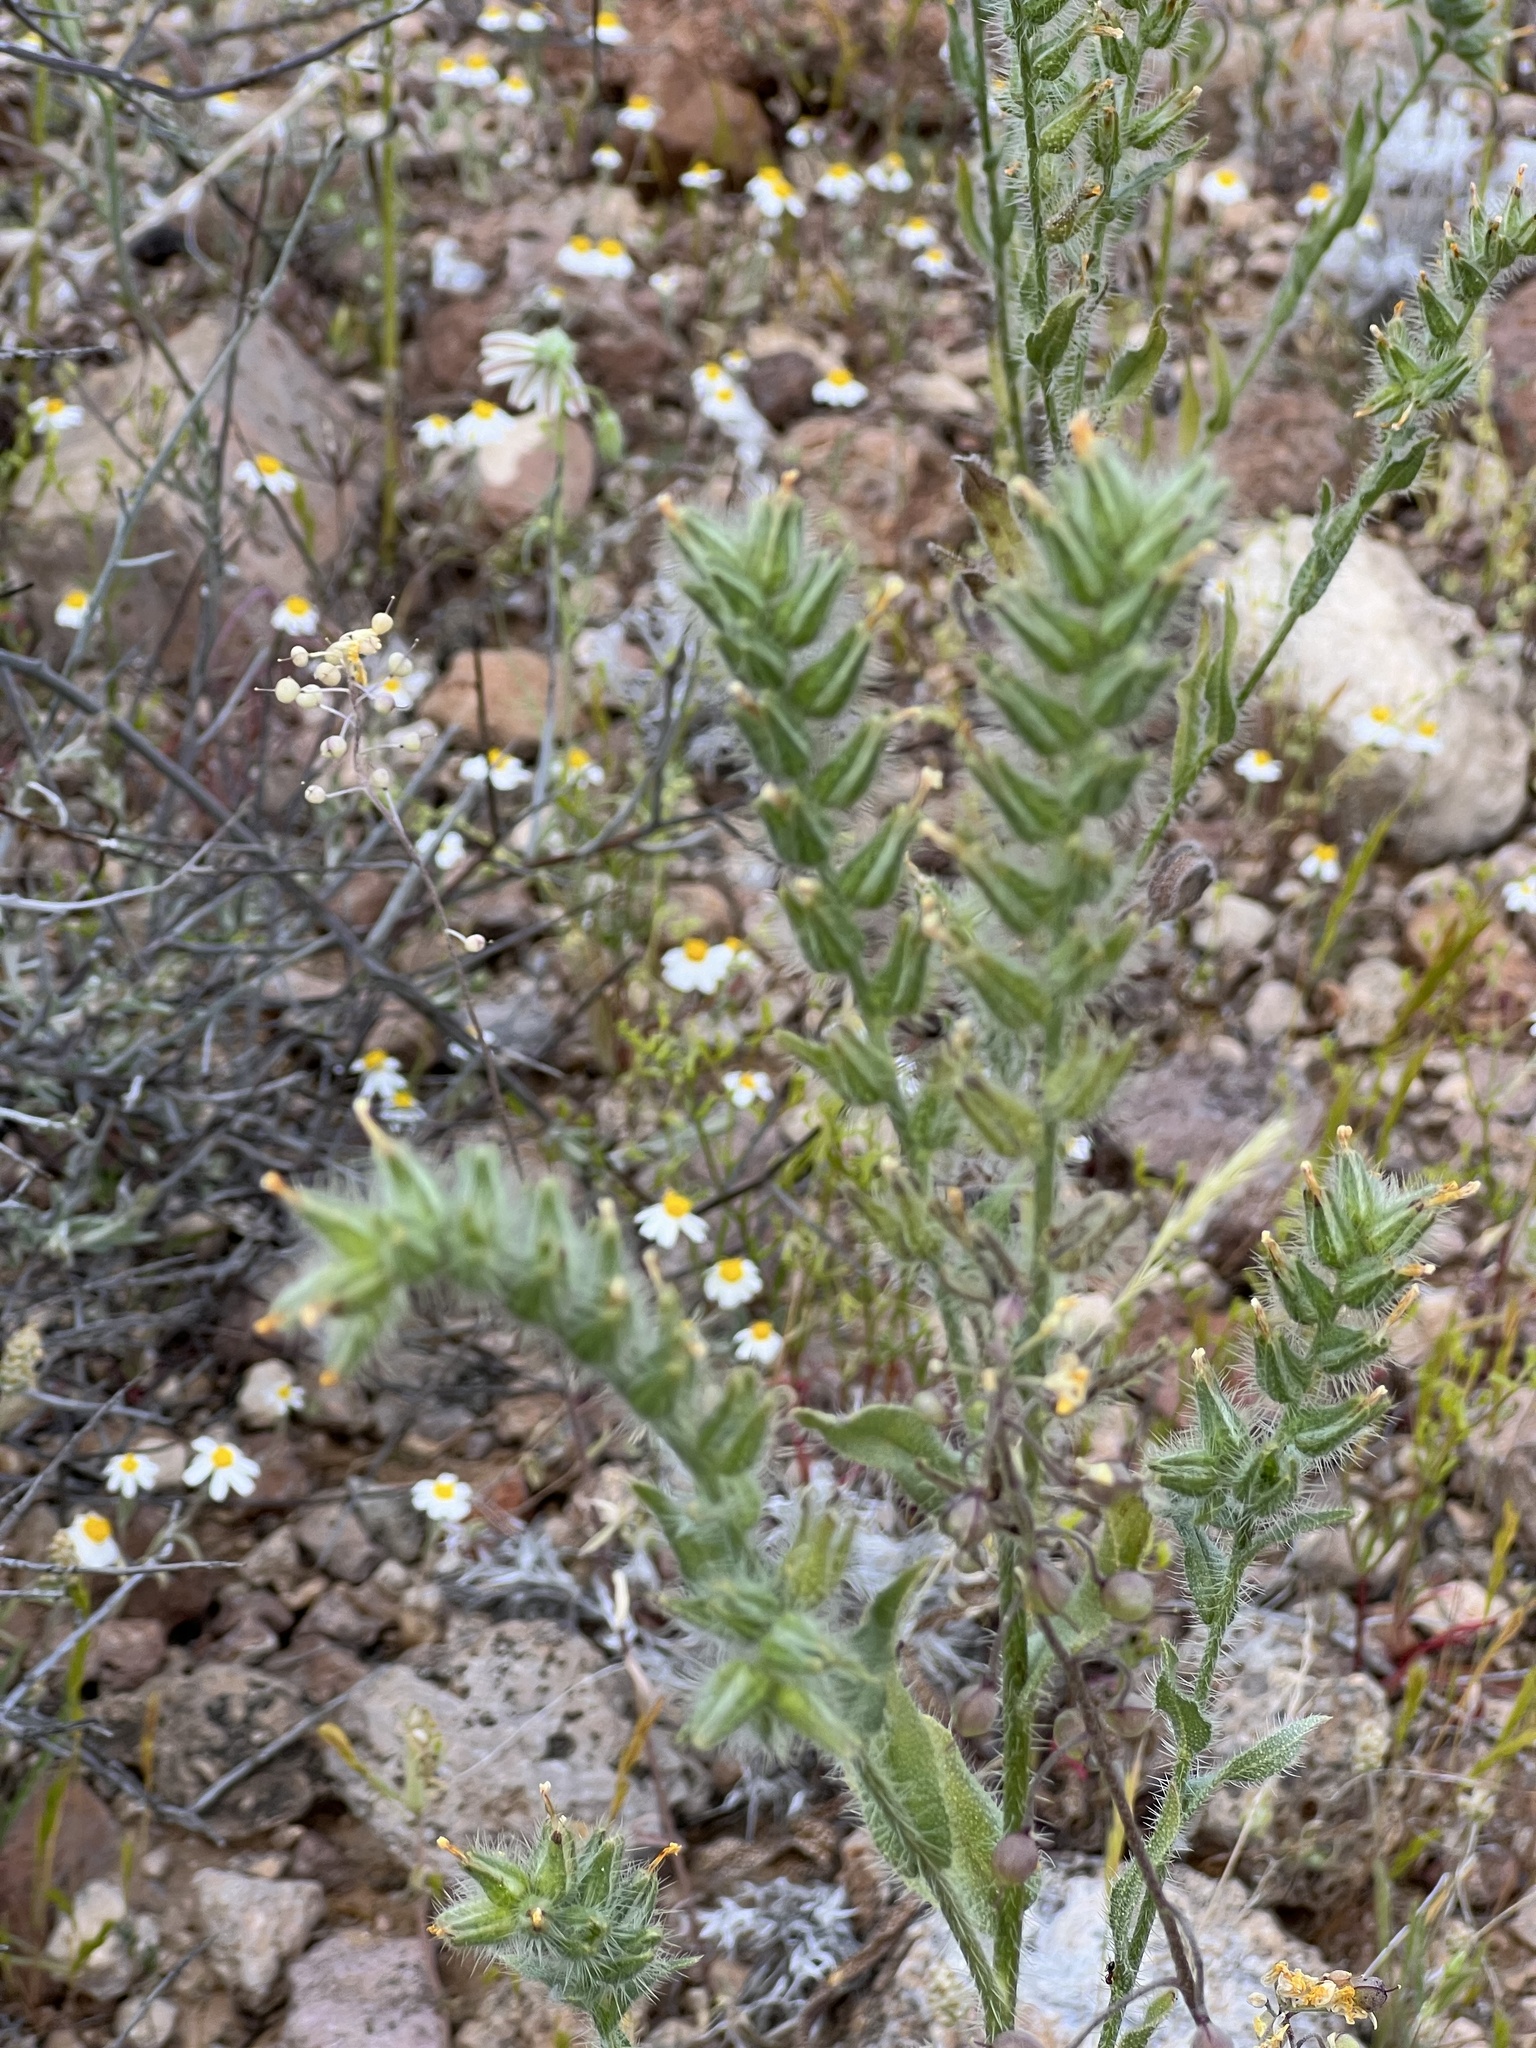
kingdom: Plantae
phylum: Tracheophyta
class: Magnoliopsida
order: Boraginales
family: Boraginaceae
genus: Amsinckia
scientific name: Amsinckia tessellata
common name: Tessellate fiddleneck
